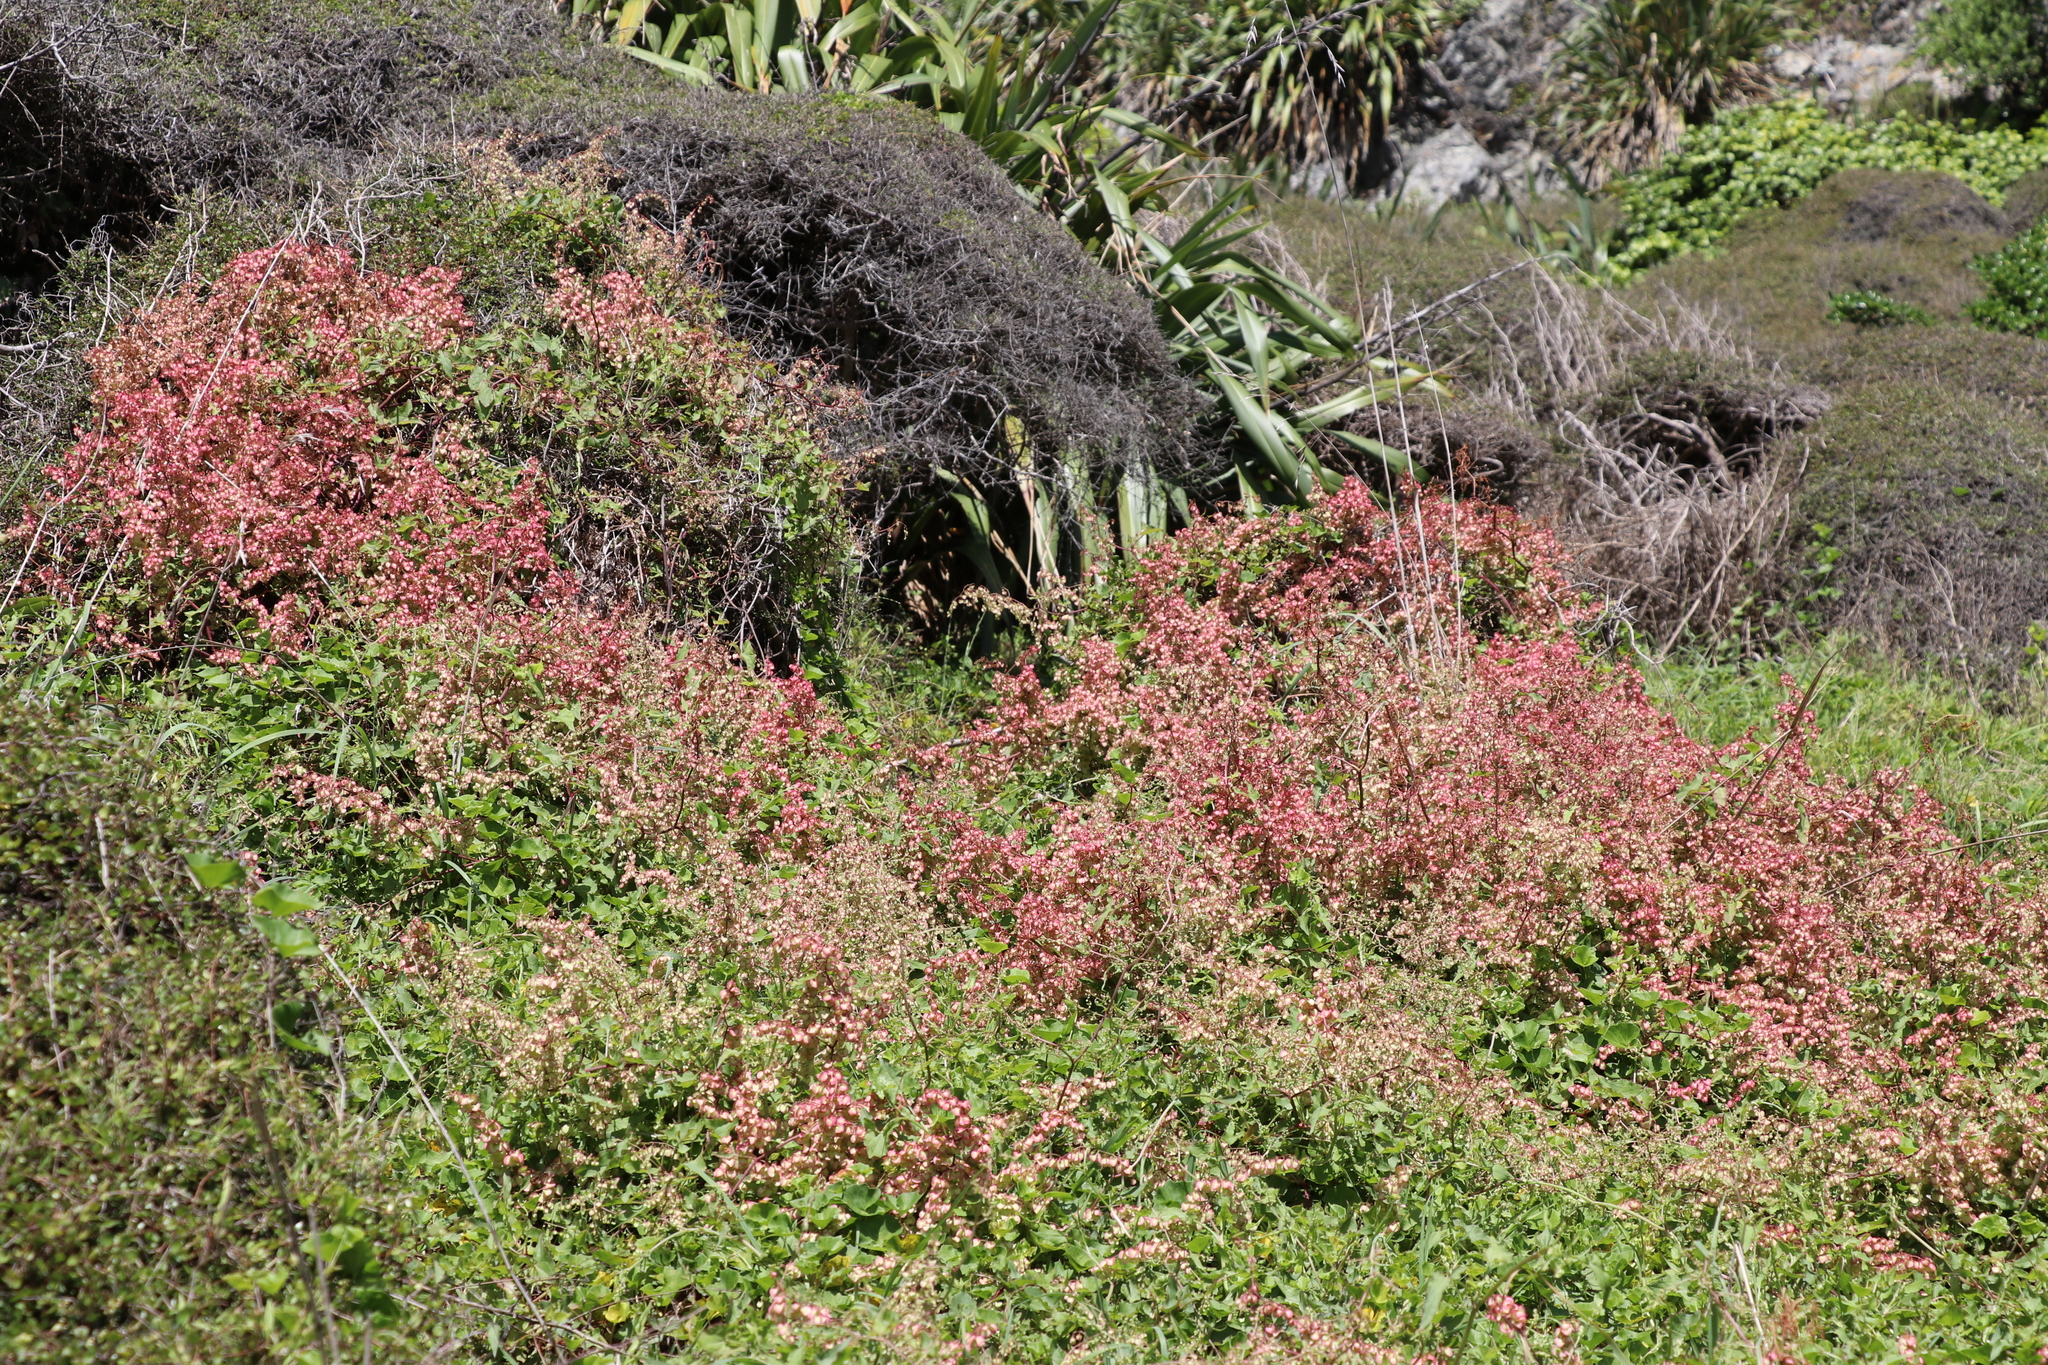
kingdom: Plantae
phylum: Tracheophyta
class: Magnoliopsida
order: Caryophyllales
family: Polygonaceae
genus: Rumex
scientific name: Rumex sagittatus
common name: Climbing dock
